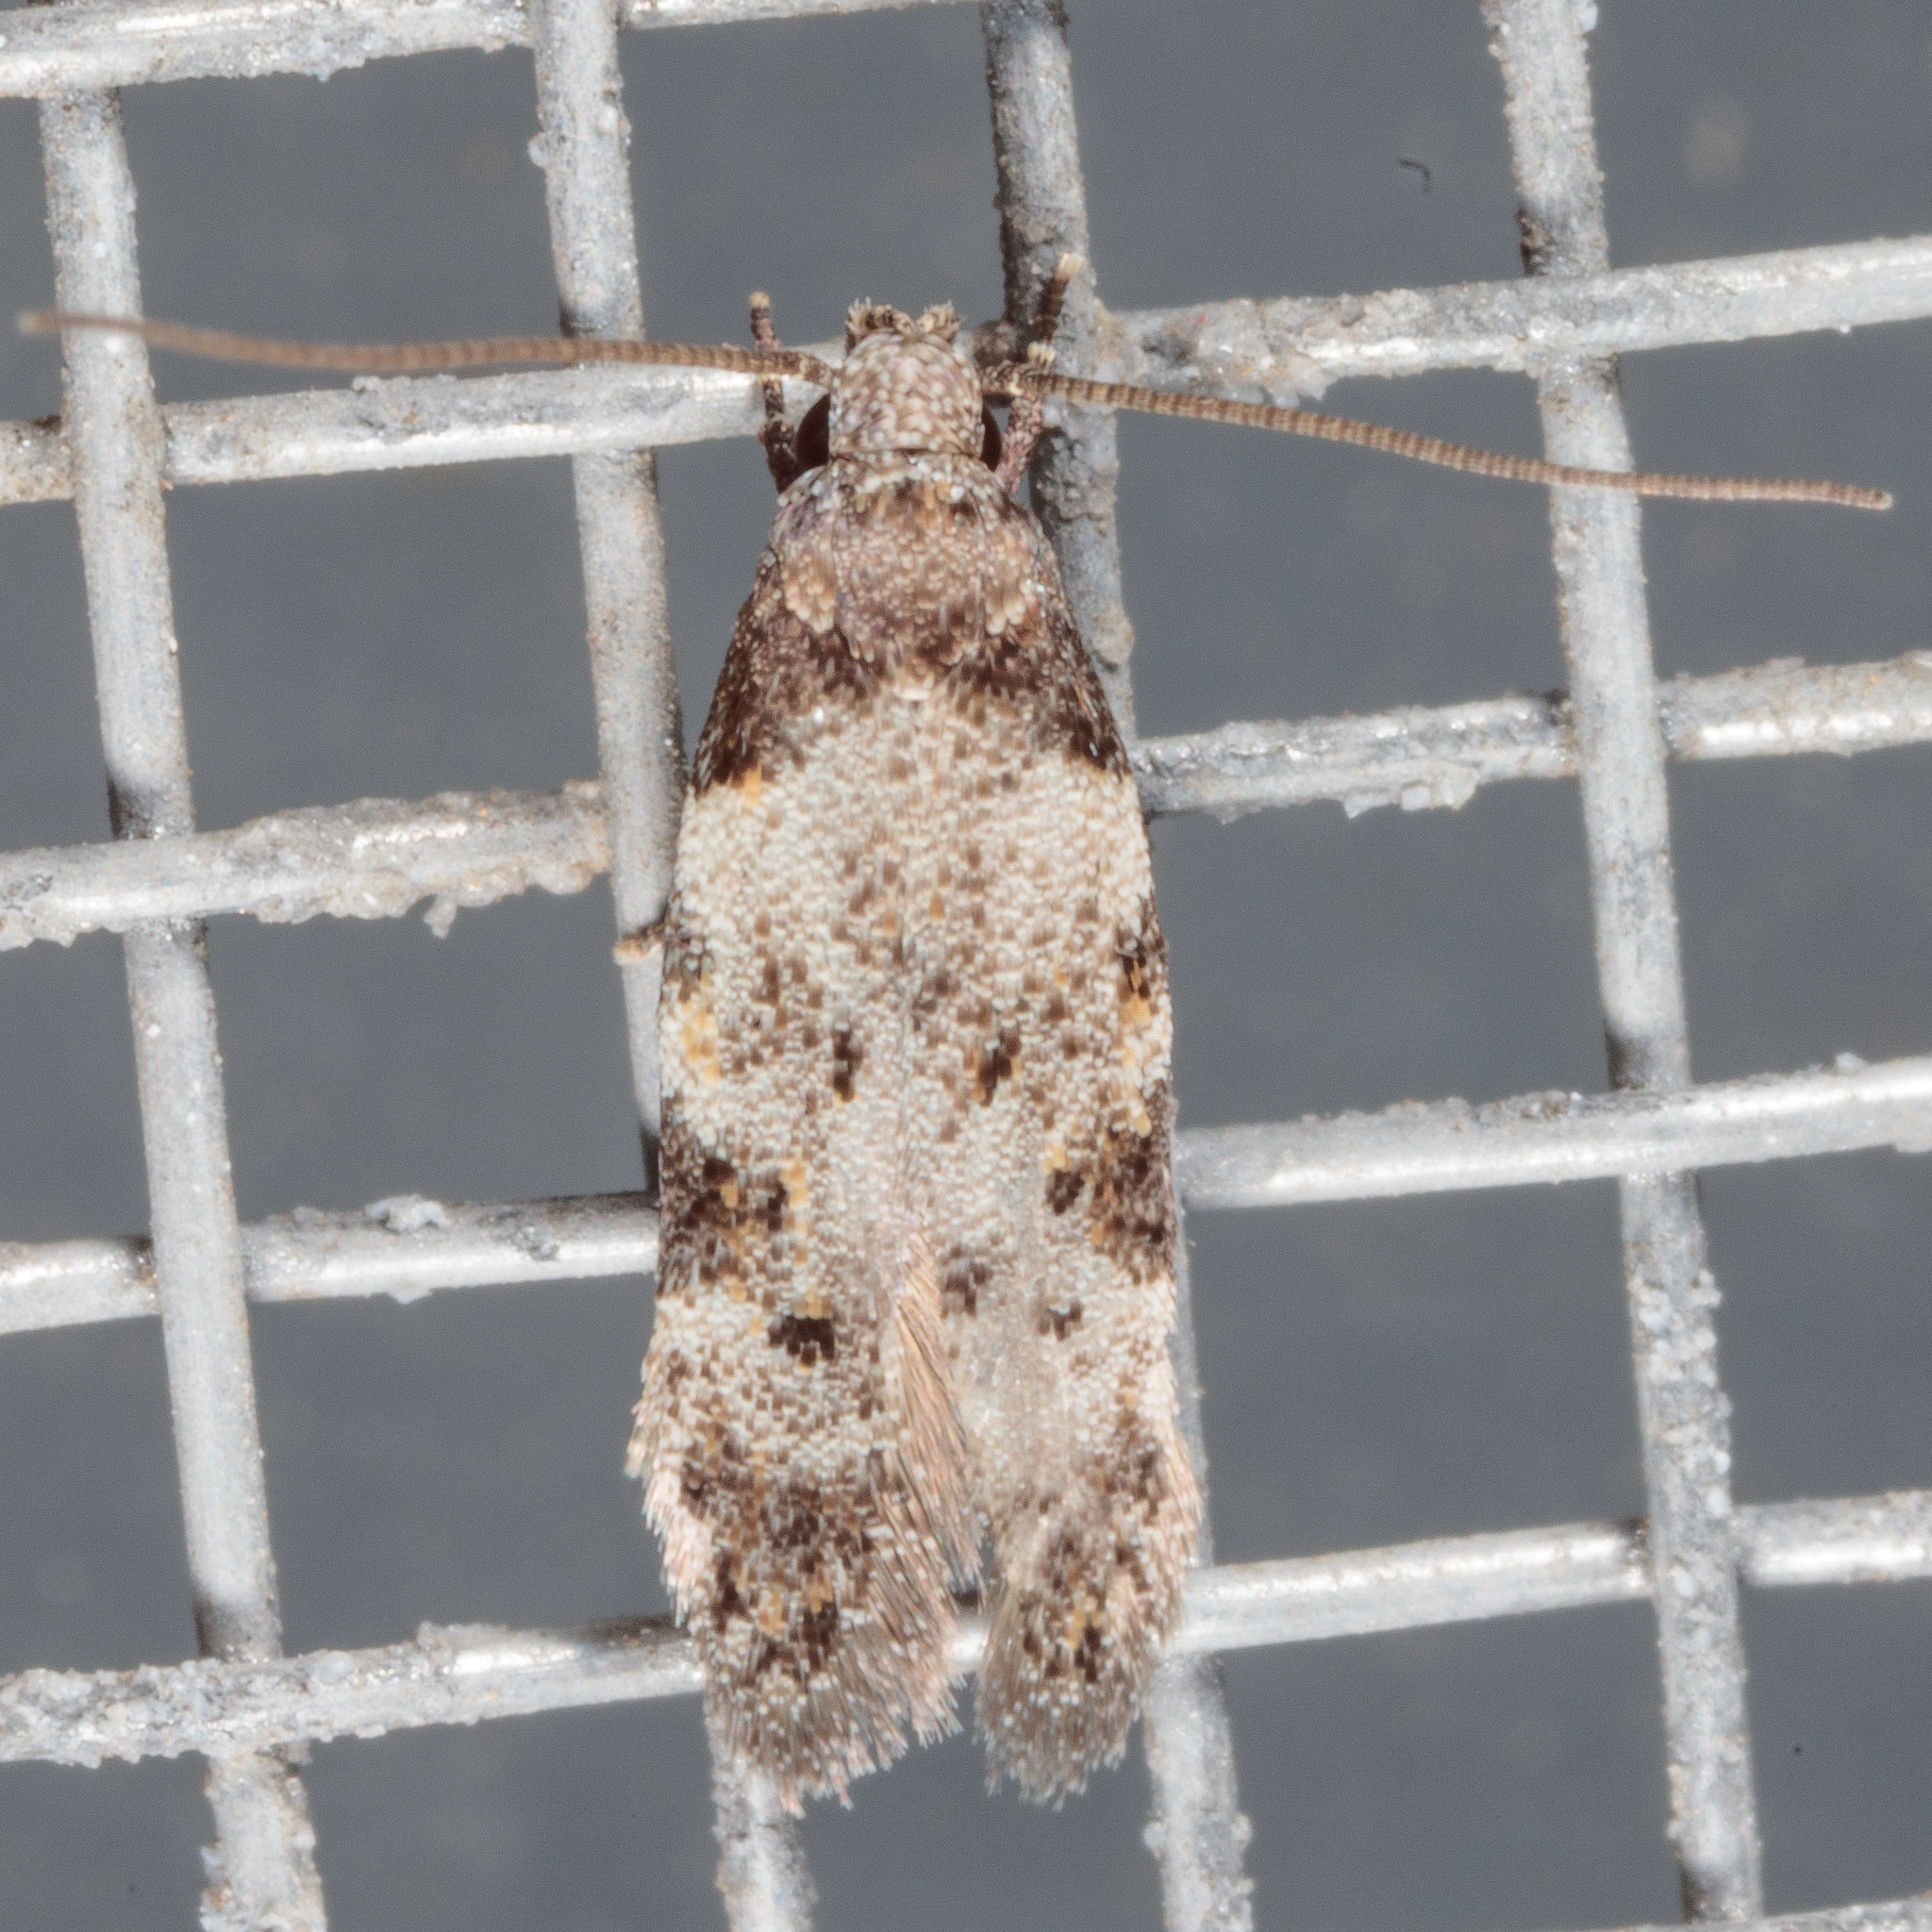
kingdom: Animalia
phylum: Arthropoda
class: Insecta
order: Lepidoptera
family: Autostichidae
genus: Taygete
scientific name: Taygete attributella
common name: Triangle-marked twirler moth
